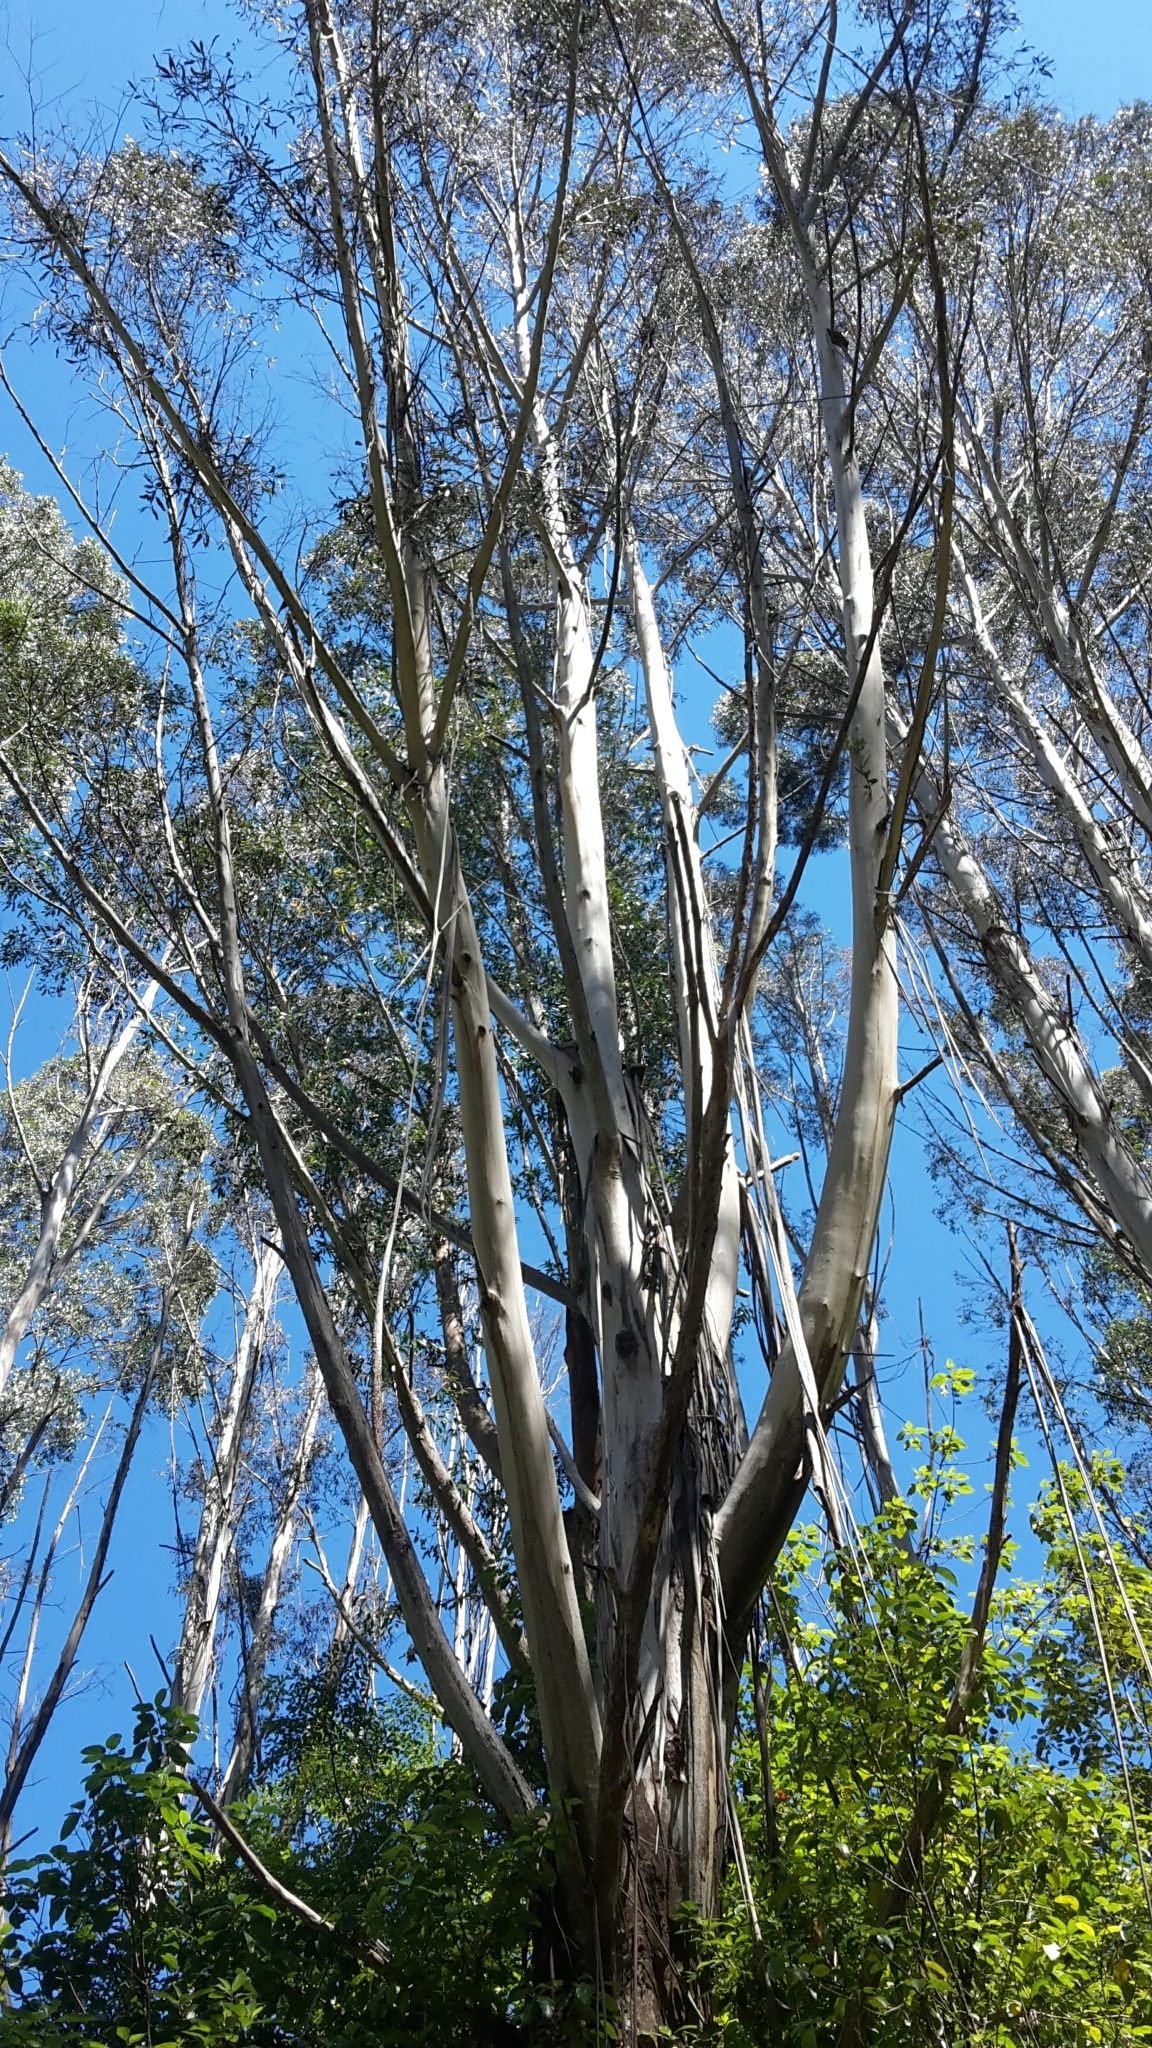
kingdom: Plantae
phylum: Tracheophyta
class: Magnoliopsida
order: Myrtales
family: Myrtaceae
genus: Eucalyptus
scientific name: Eucalyptus regnans
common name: Stringy gum
